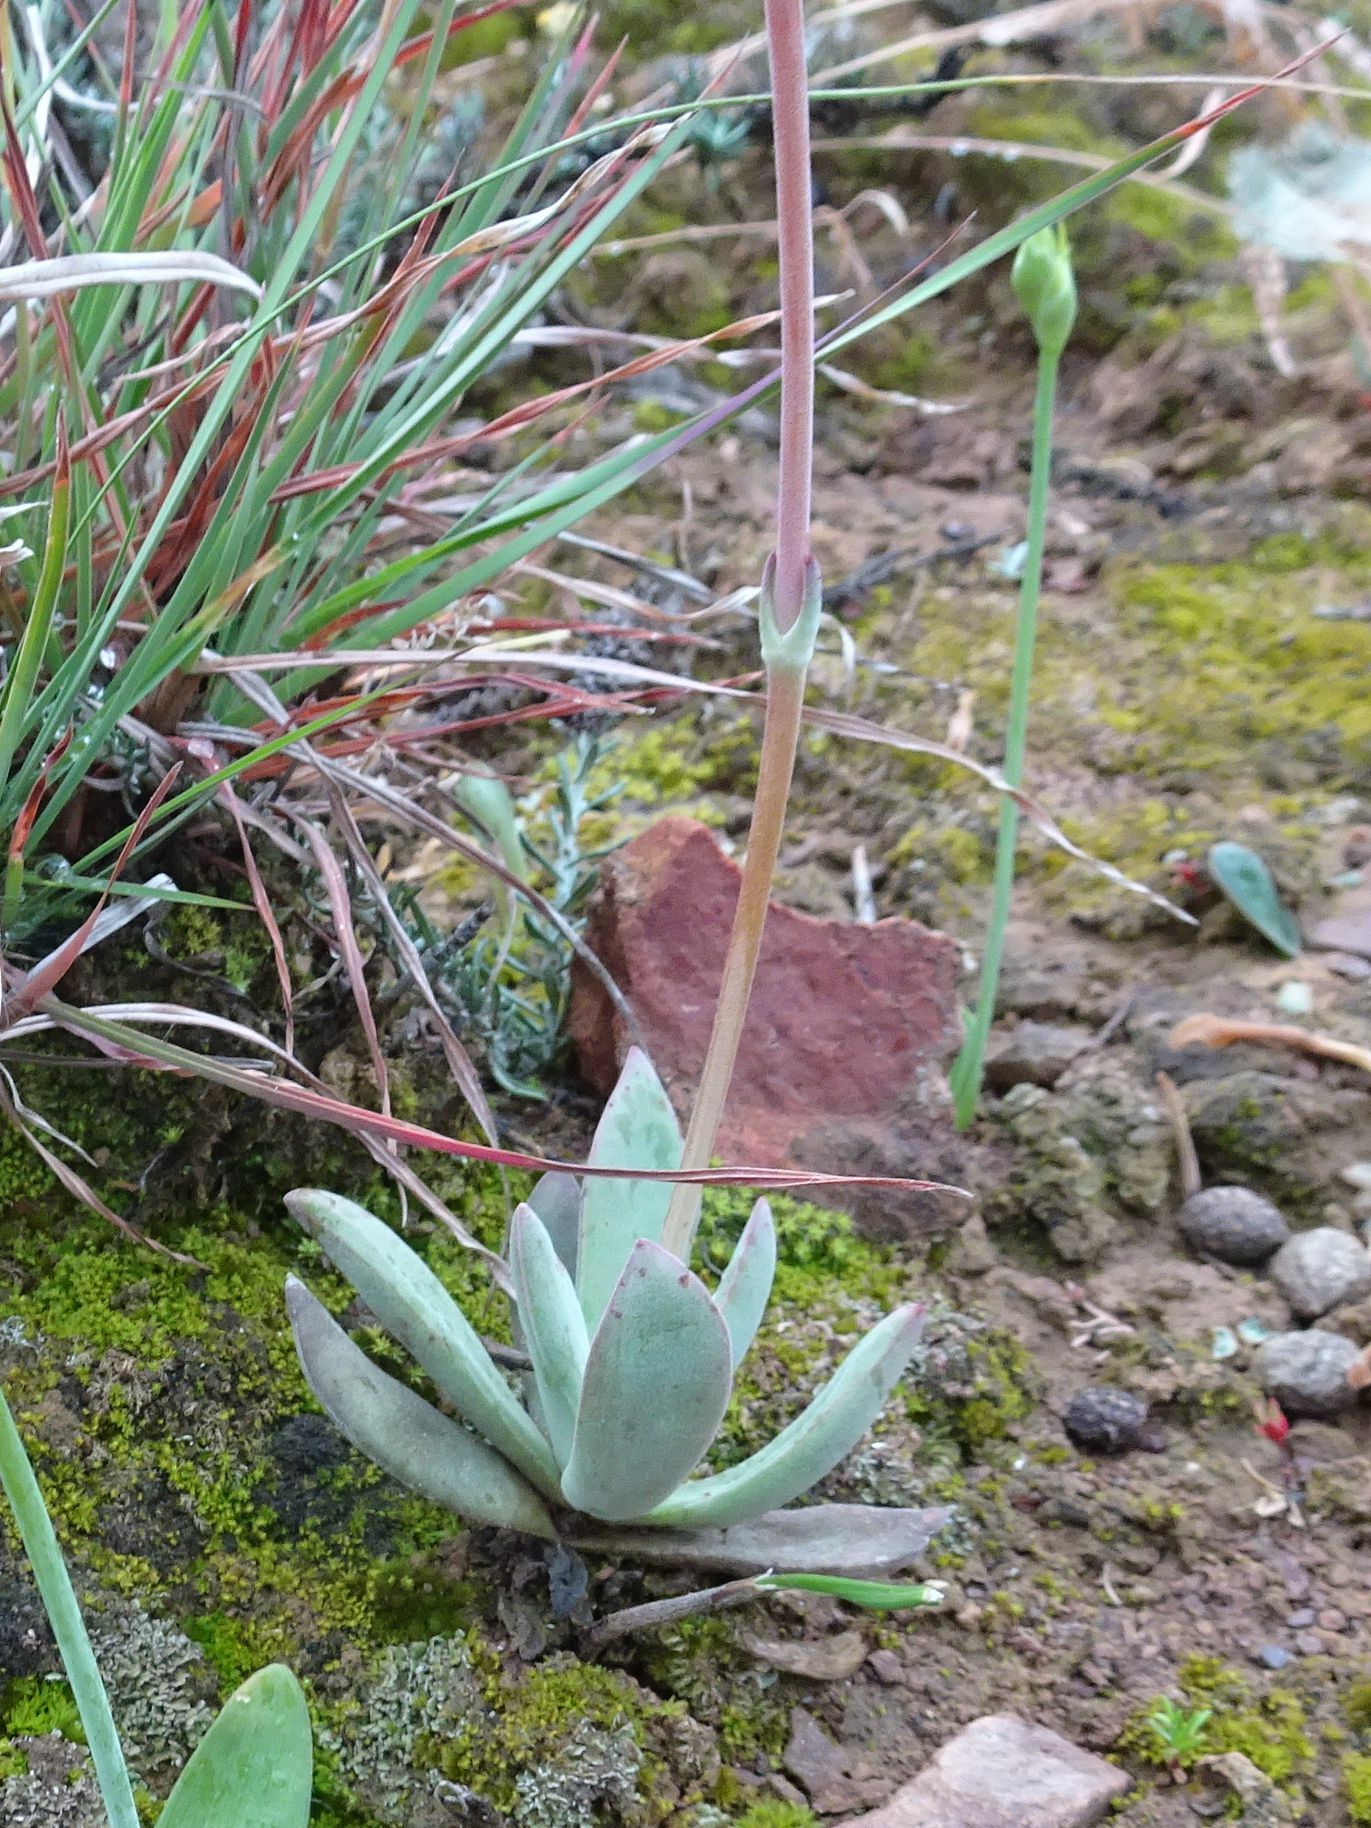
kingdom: Plantae
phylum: Tracheophyta
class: Magnoliopsida
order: Saxifragales
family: Crassulaceae
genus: Crassula
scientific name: Crassula cotyledonis
